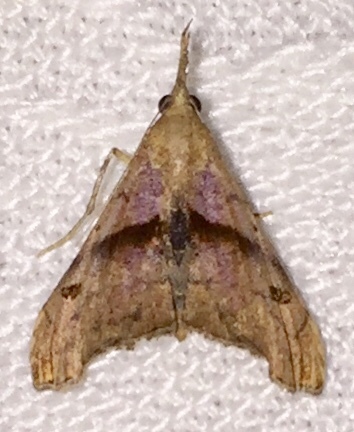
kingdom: Animalia
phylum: Arthropoda
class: Insecta
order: Lepidoptera
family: Erebidae
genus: Palthis
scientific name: Palthis angulalis
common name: Dark-spotted palthis moth
